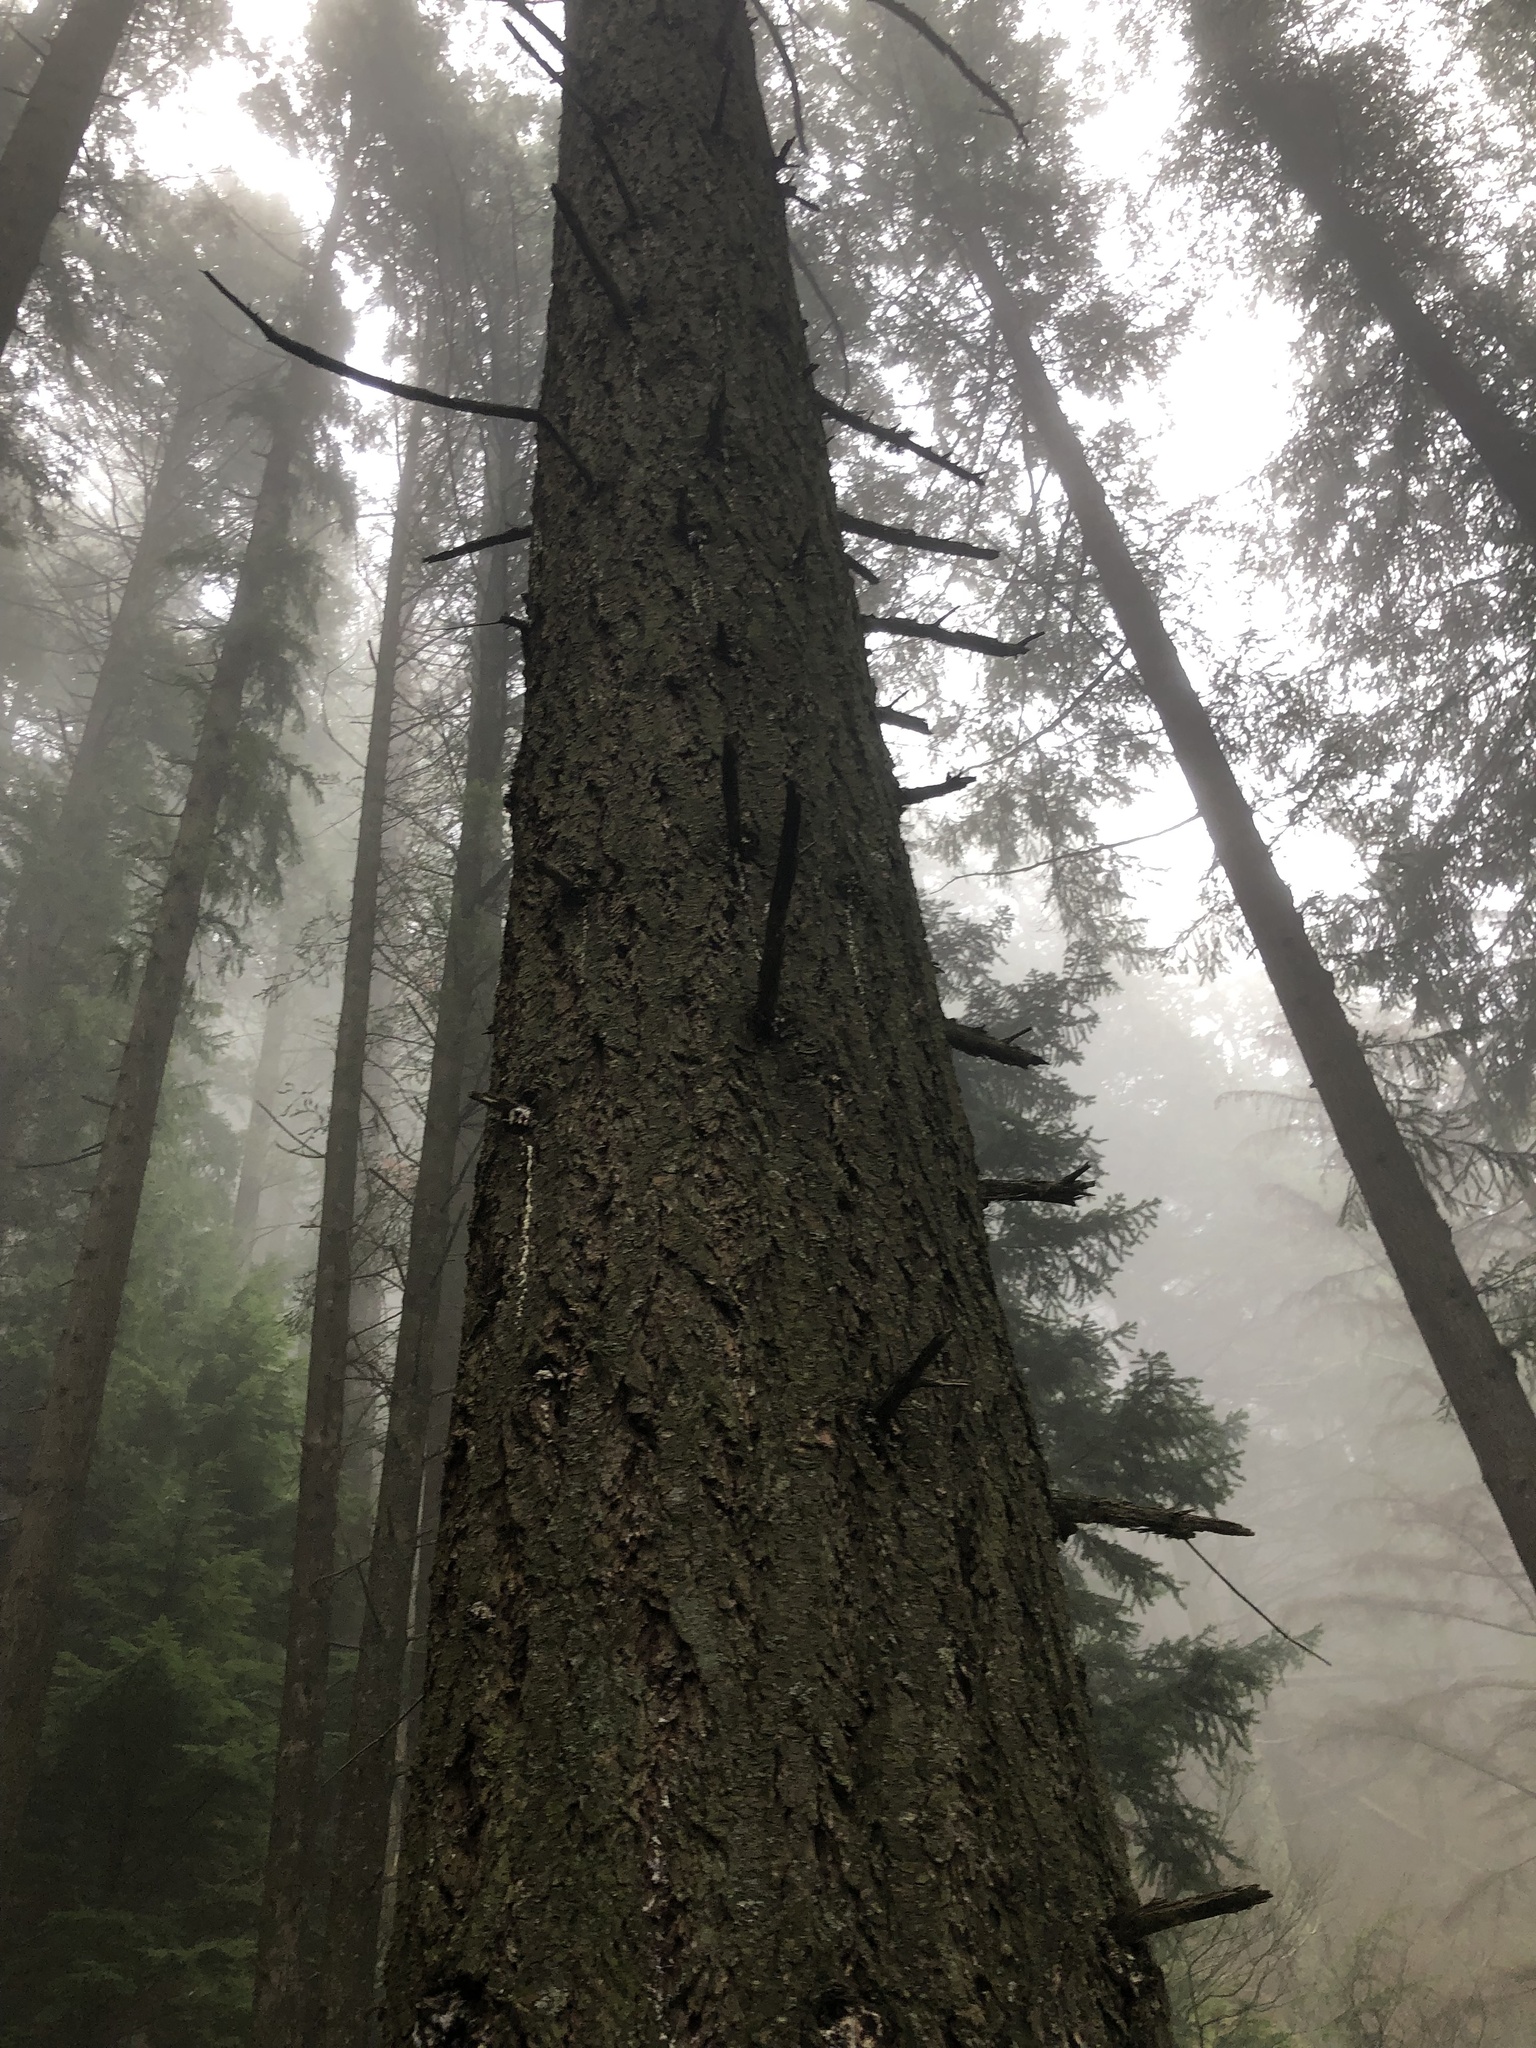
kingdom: Plantae
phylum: Tracheophyta
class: Pinopsida
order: Pinales
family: Pinaceae
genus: Pseudotsuga
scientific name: Pseudotsuga menziesii
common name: Douglas fir
